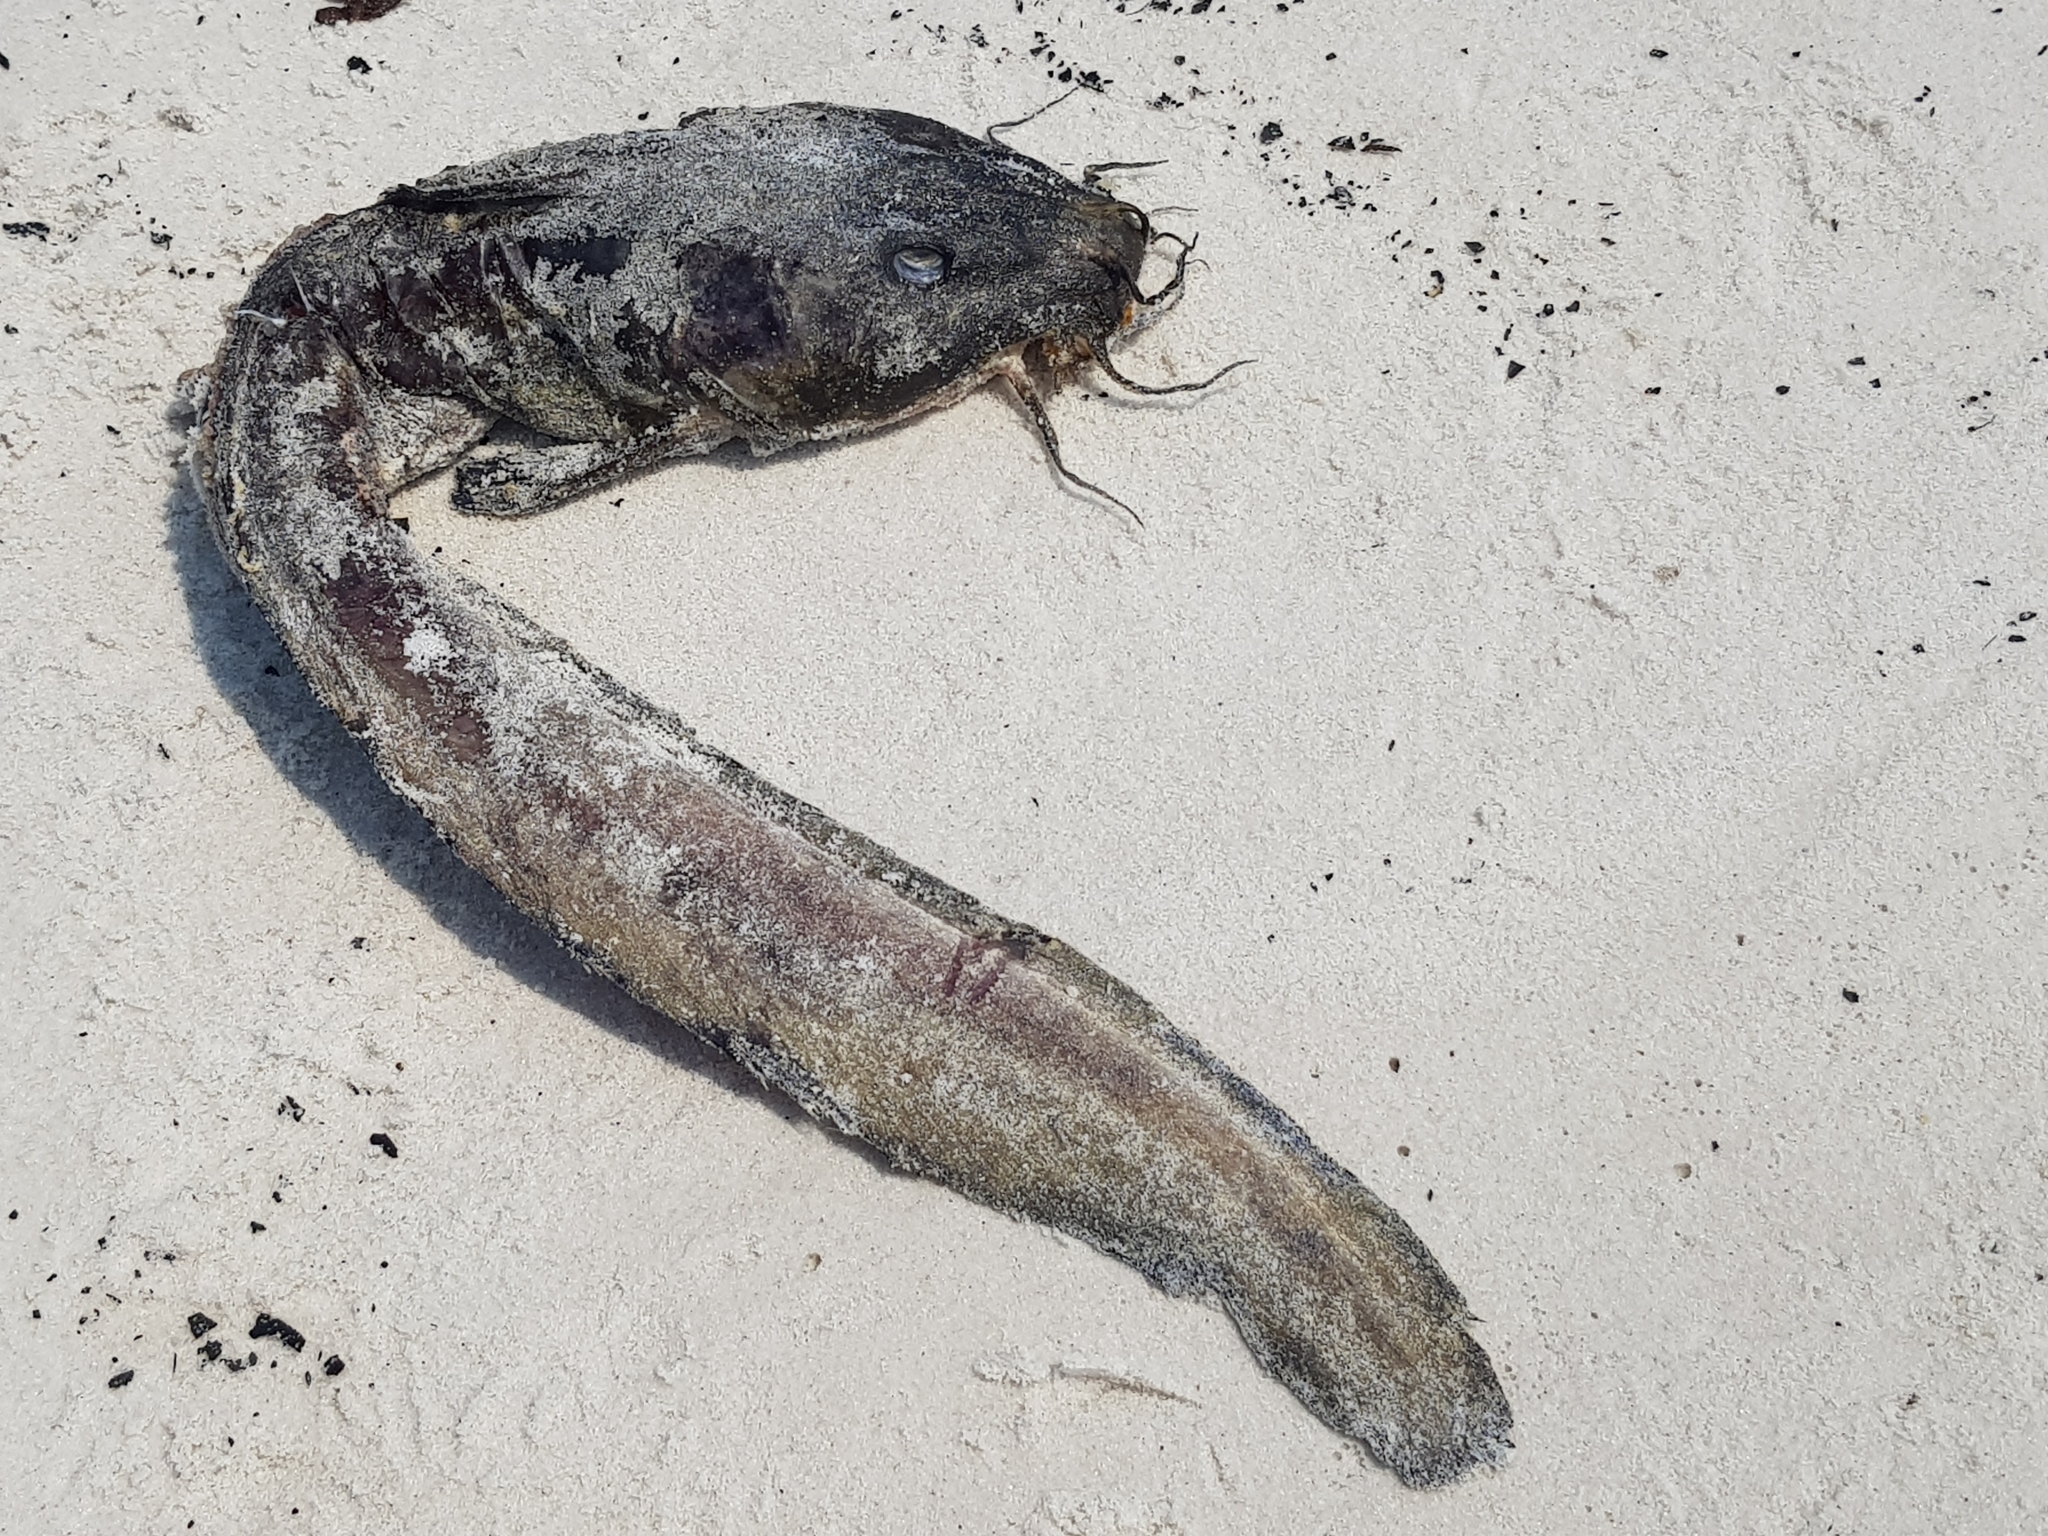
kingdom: Animalia
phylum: Chordata
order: Siluriformes
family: Plotosidae
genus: Cnidoglanis
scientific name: Cnidoglanis macrocephalus
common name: Cobbler
